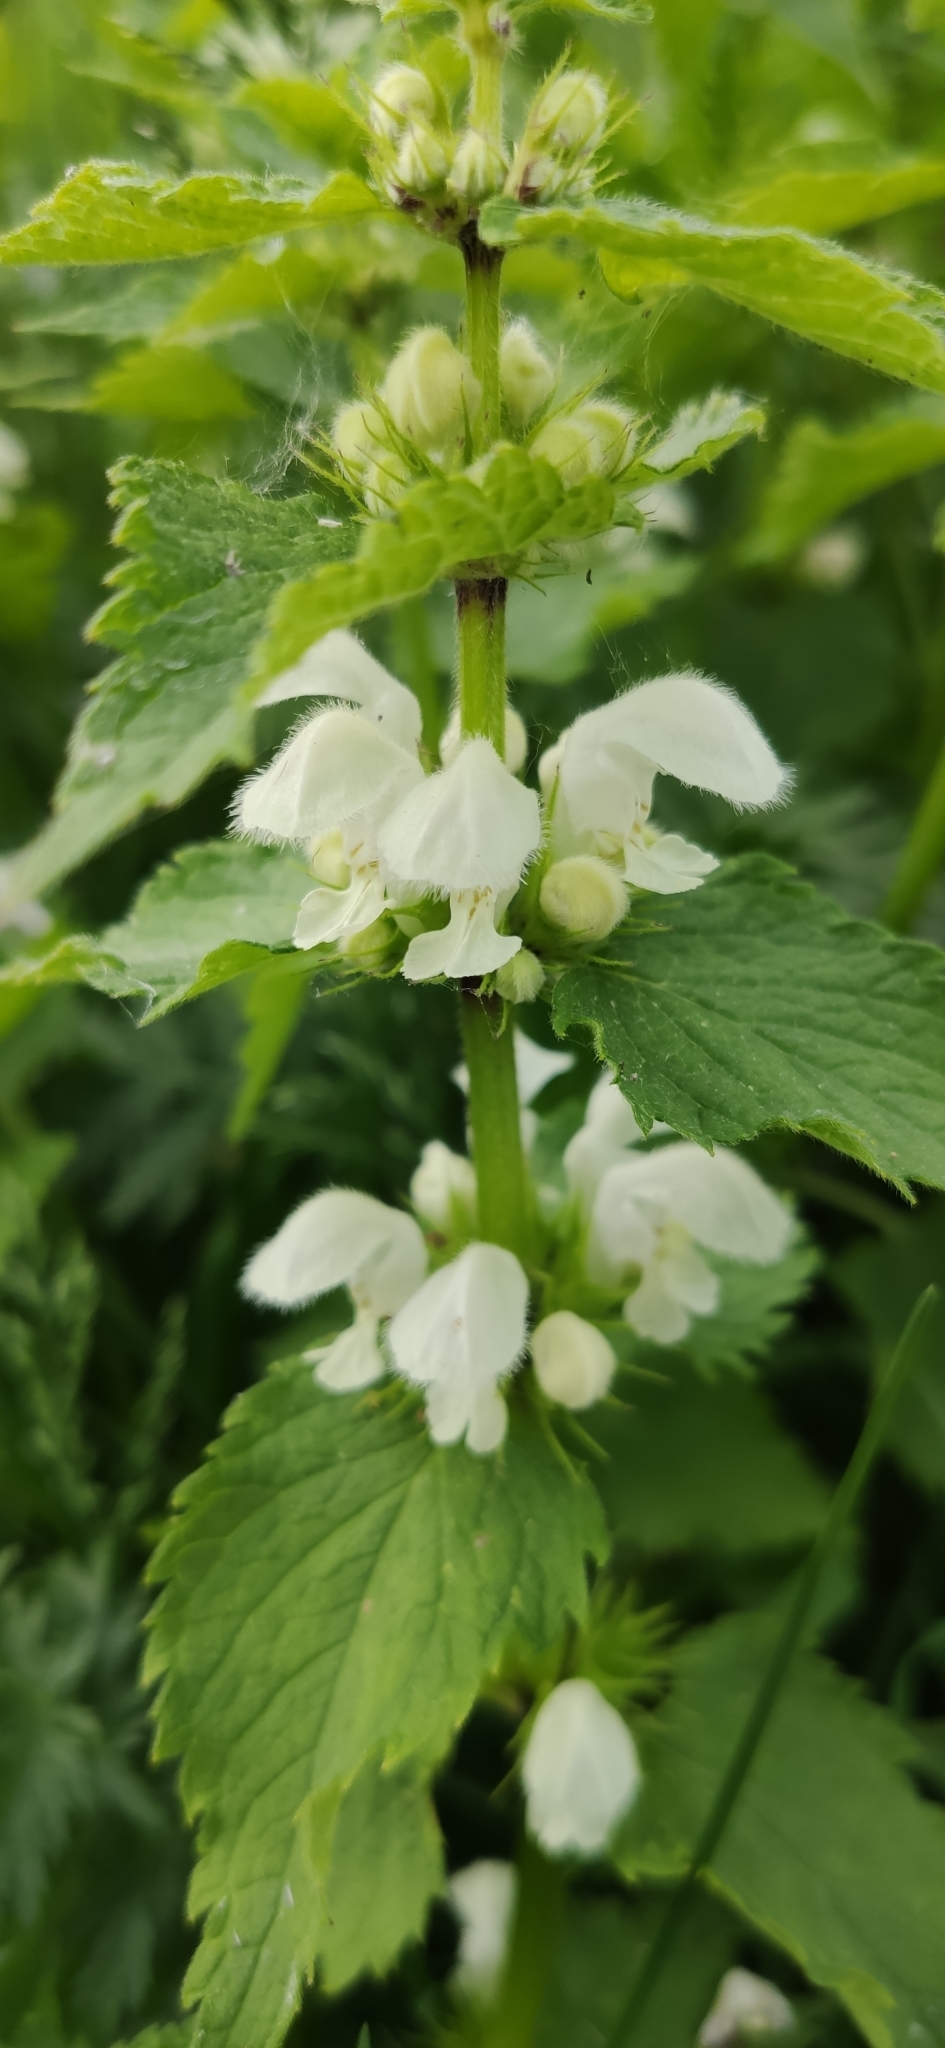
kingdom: Plantae
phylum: Tracheophyta
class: Magnoliopsida
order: Lamiales
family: Lamiaceae
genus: Lamium
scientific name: Lamium album
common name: White dead-nettle
